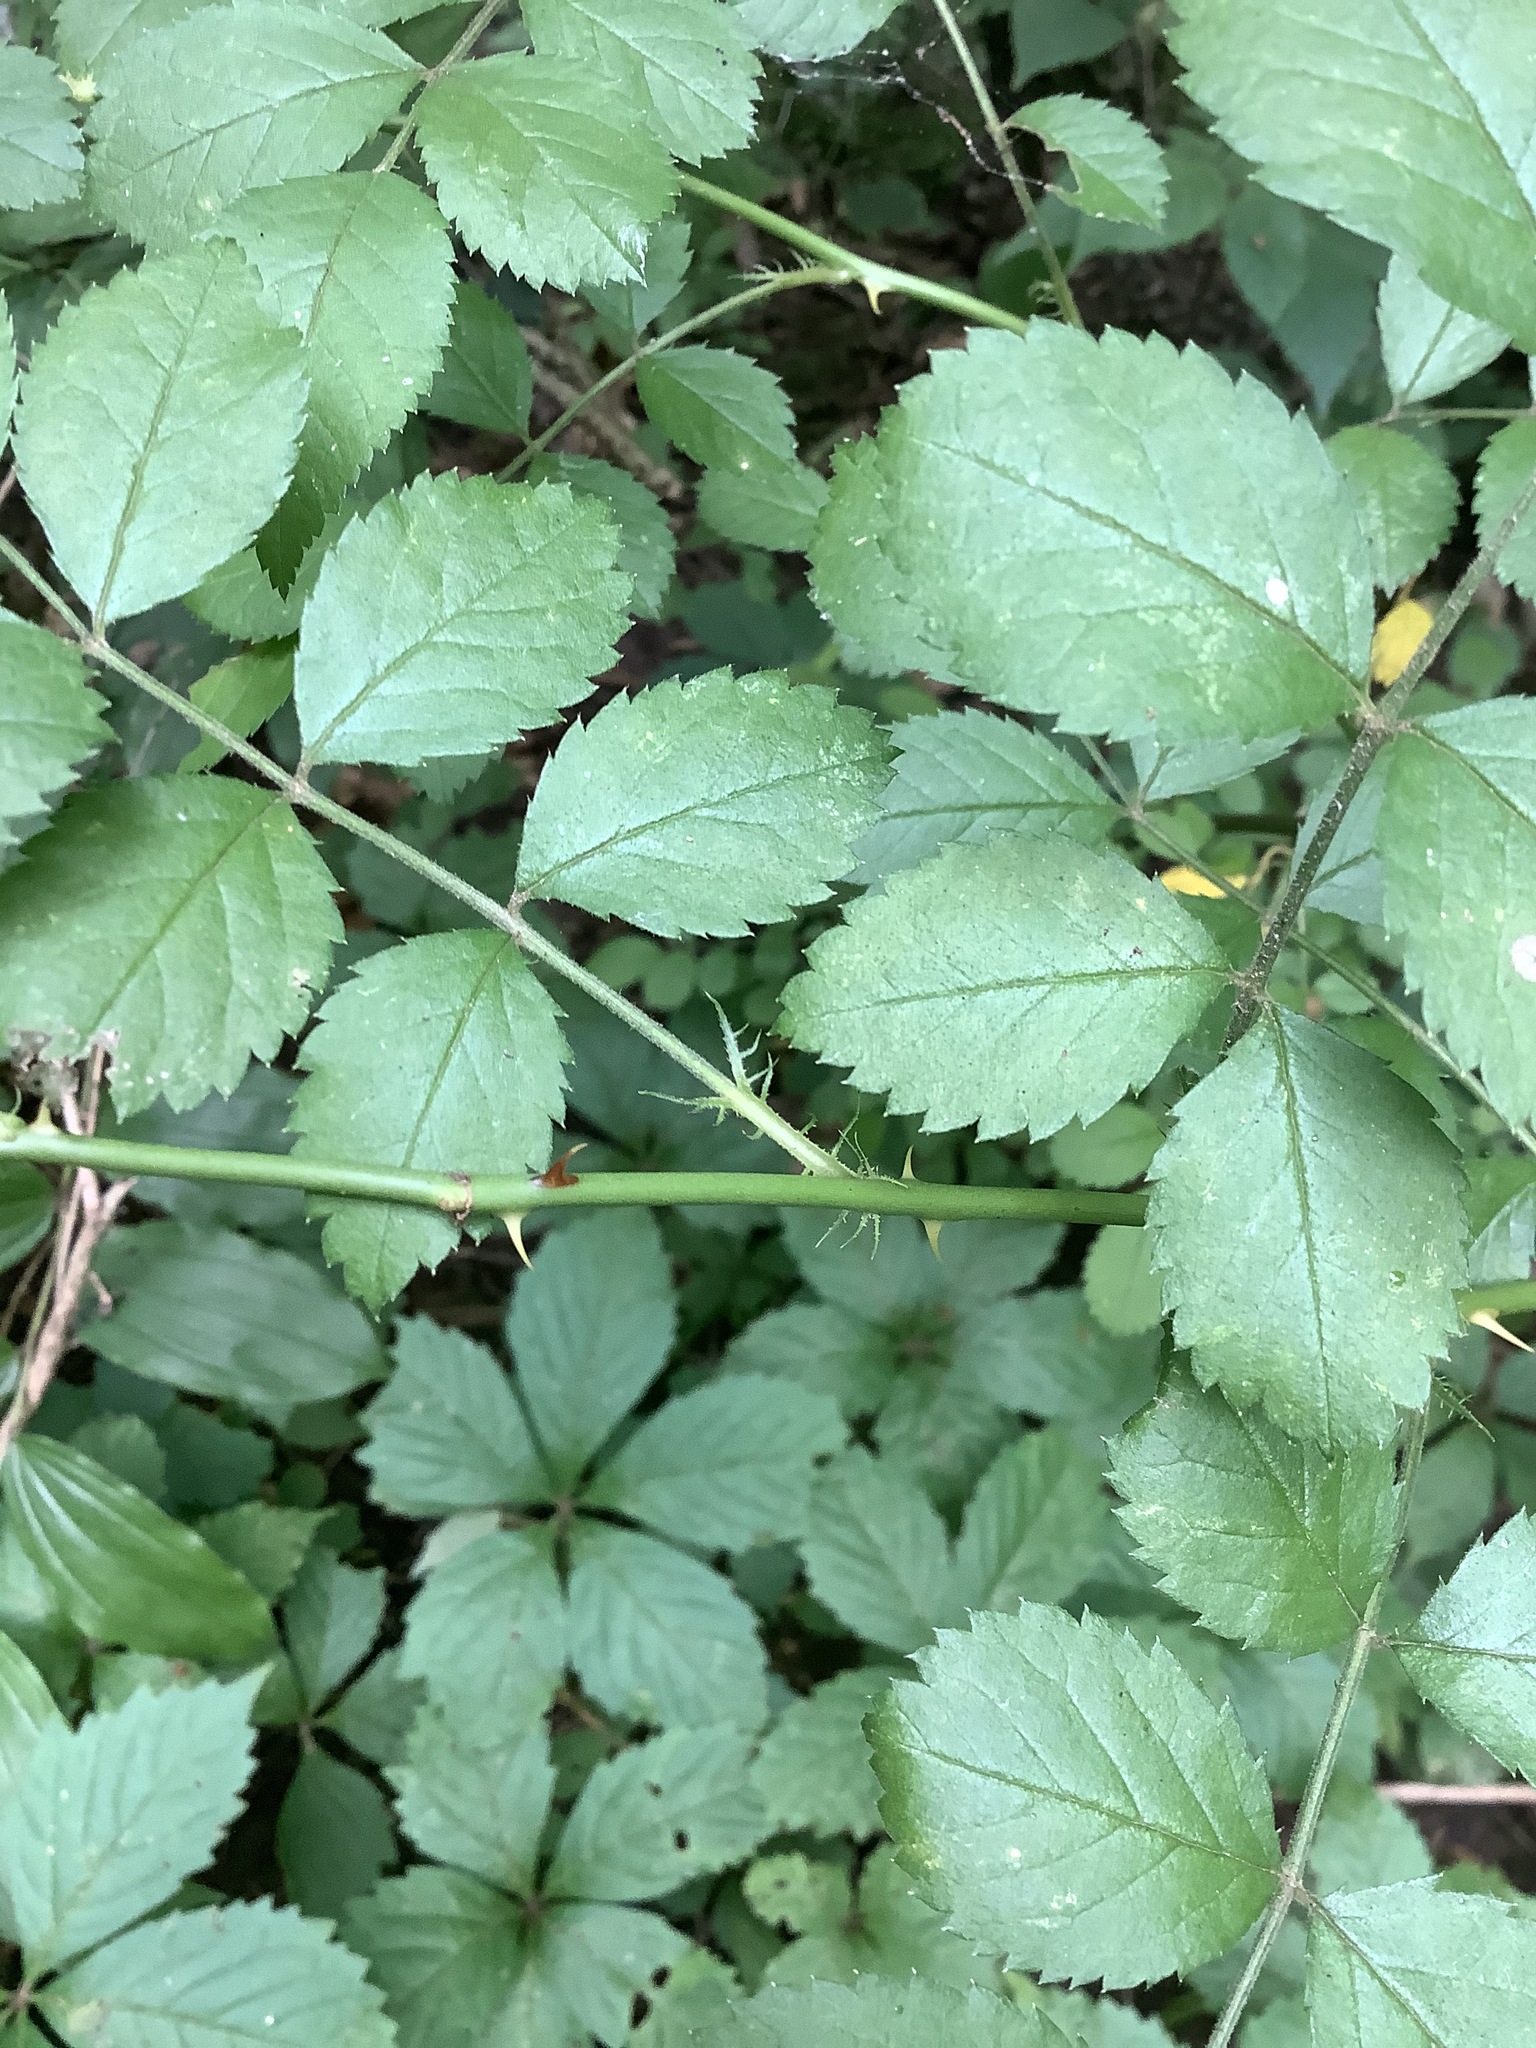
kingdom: Plantae
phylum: Tracheophyta
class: Magnoliopsida
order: Rosales
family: Rosaceae
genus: Rosa
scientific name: Rosa multiflora
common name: Multiflora rose
